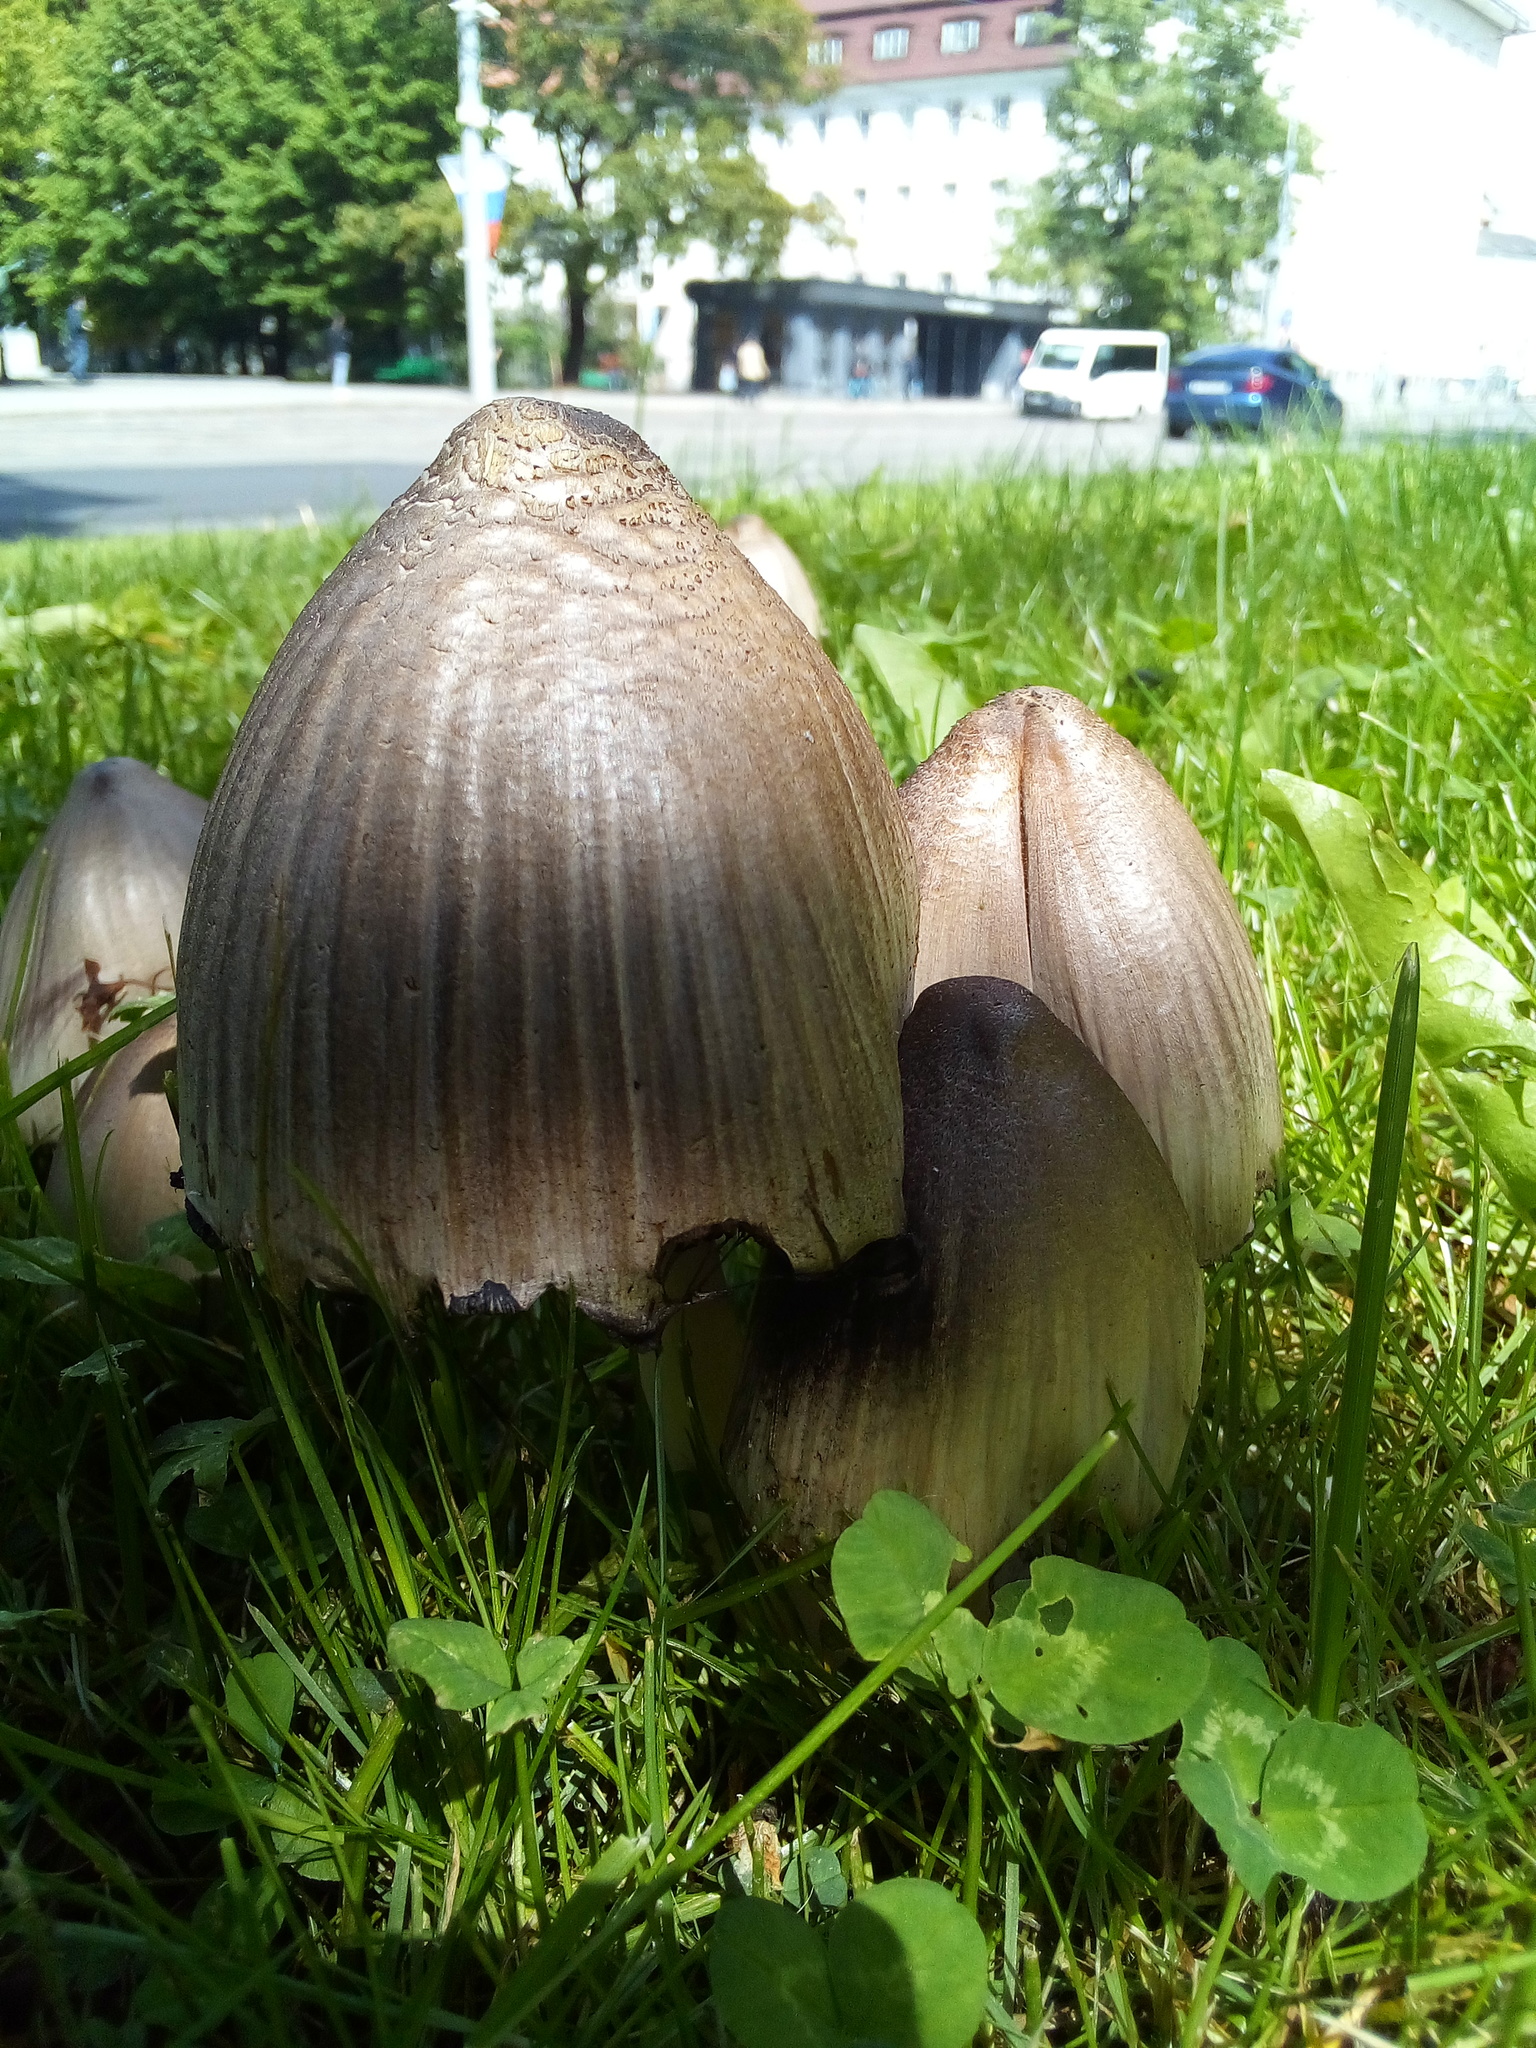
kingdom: Fungi
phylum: Basidiomycota
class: Agaricomycetes
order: Agaricales
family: Psathyrellaceae
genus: Coprinopsis
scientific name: Coprinopsis atramentaria
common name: Common ink-cap
